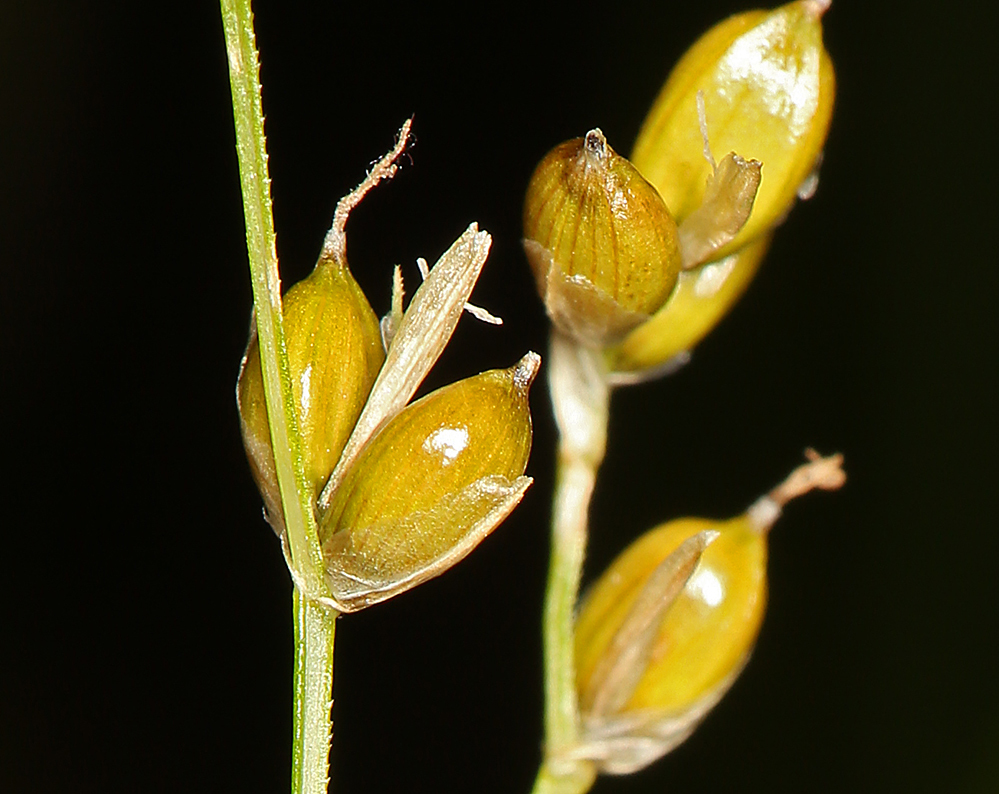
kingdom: Plantae
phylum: Tracheophyta
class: Liliopsida
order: Poales
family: Cyperaceae
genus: Carex
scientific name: Carex disperma
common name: Short-leaved sedge
